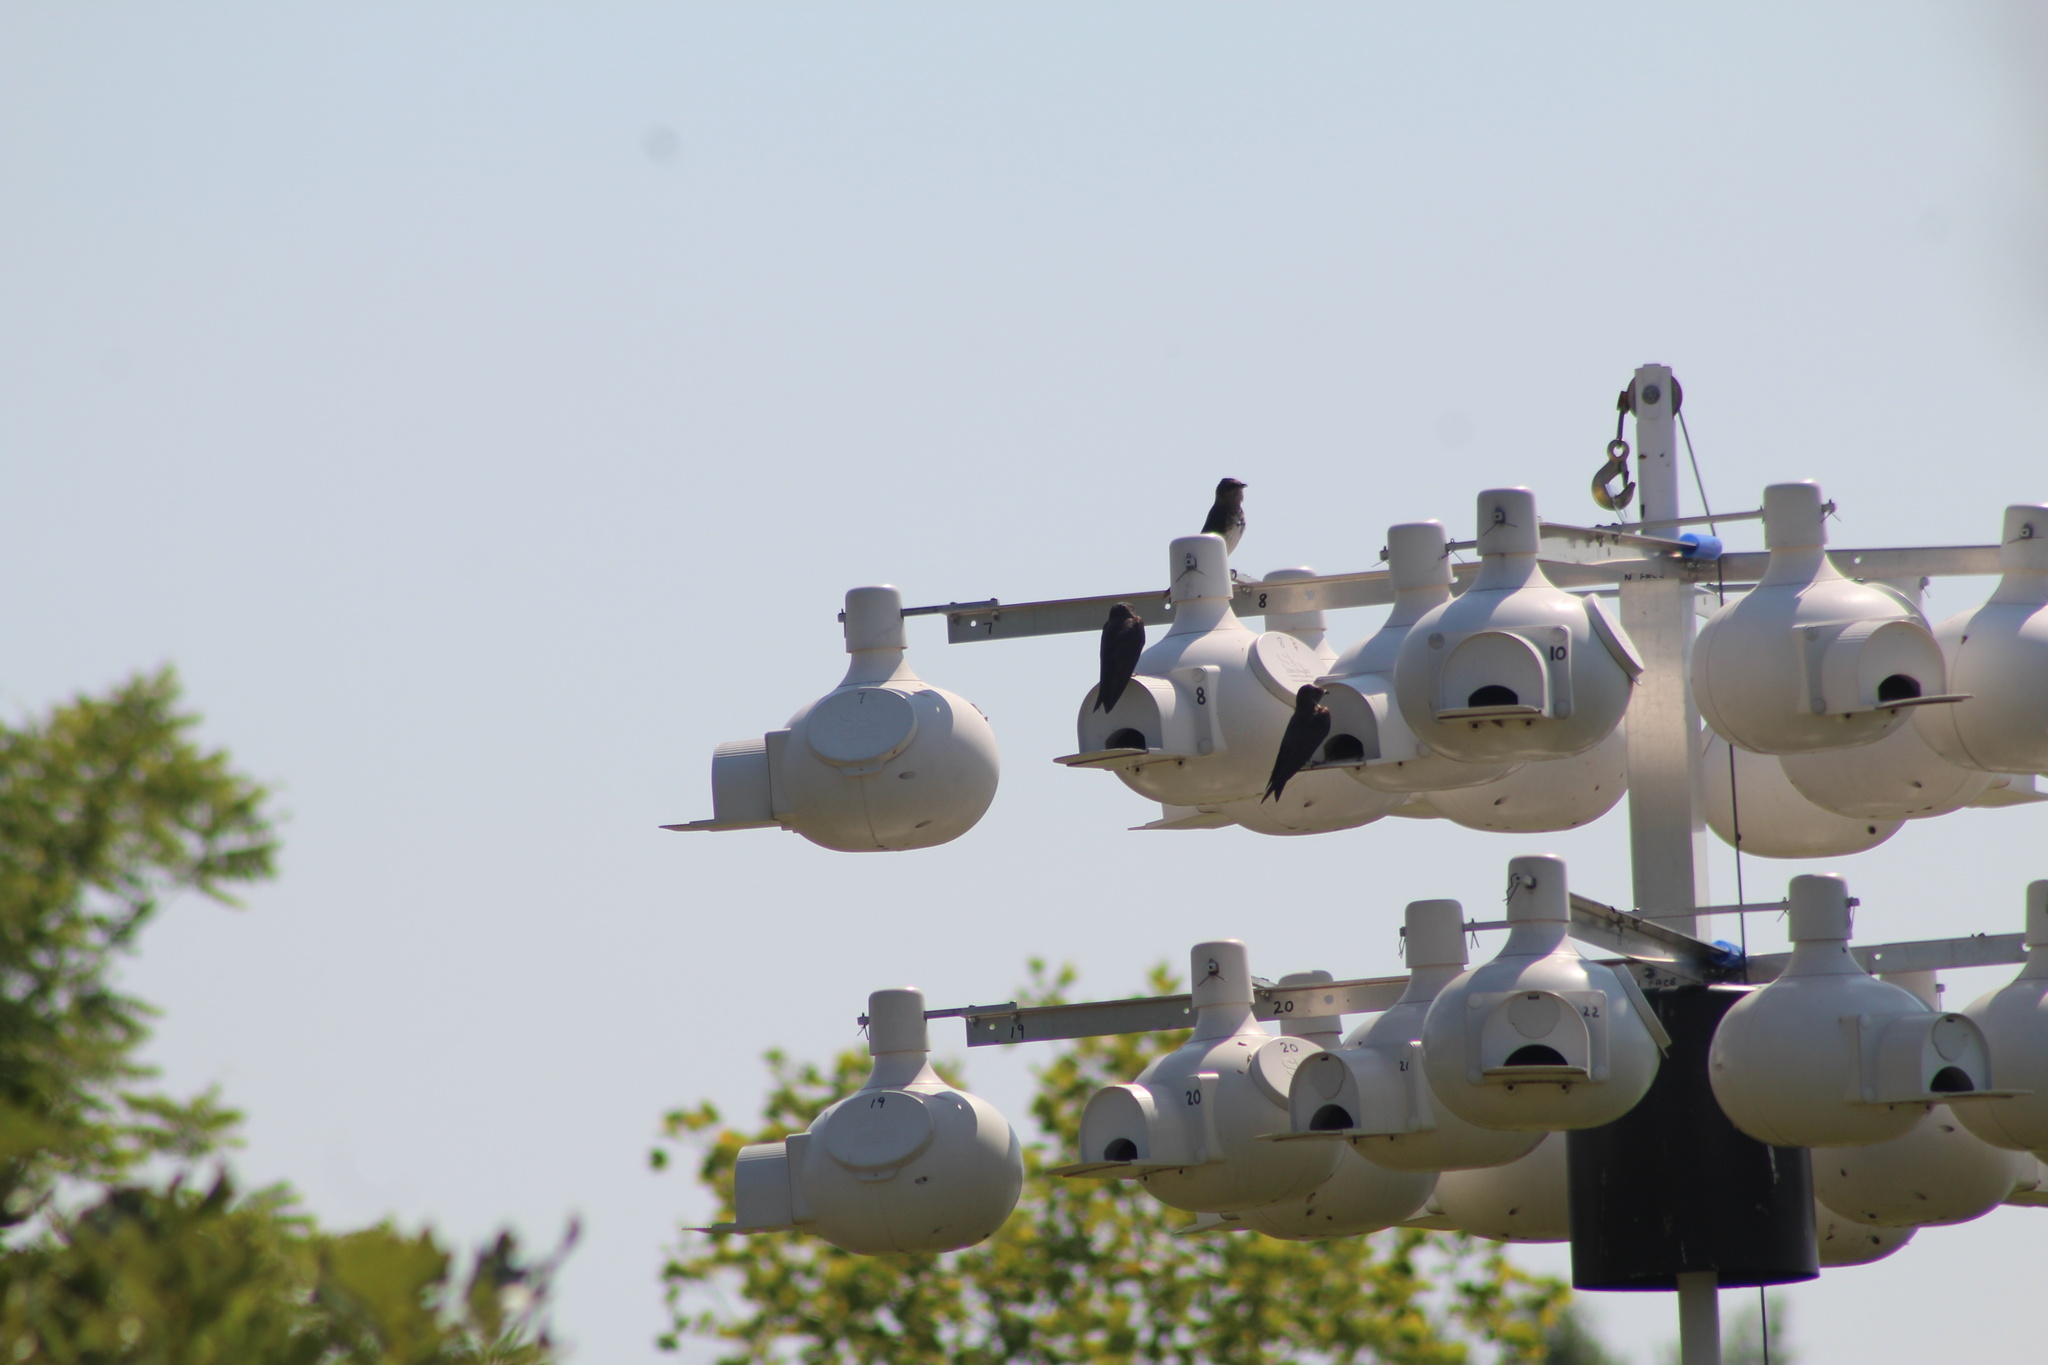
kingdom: Animalia
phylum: Chordata
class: Aves
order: Passeriformes
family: Hirundinidae
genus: Progne
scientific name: Progne subis
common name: Purple martin
